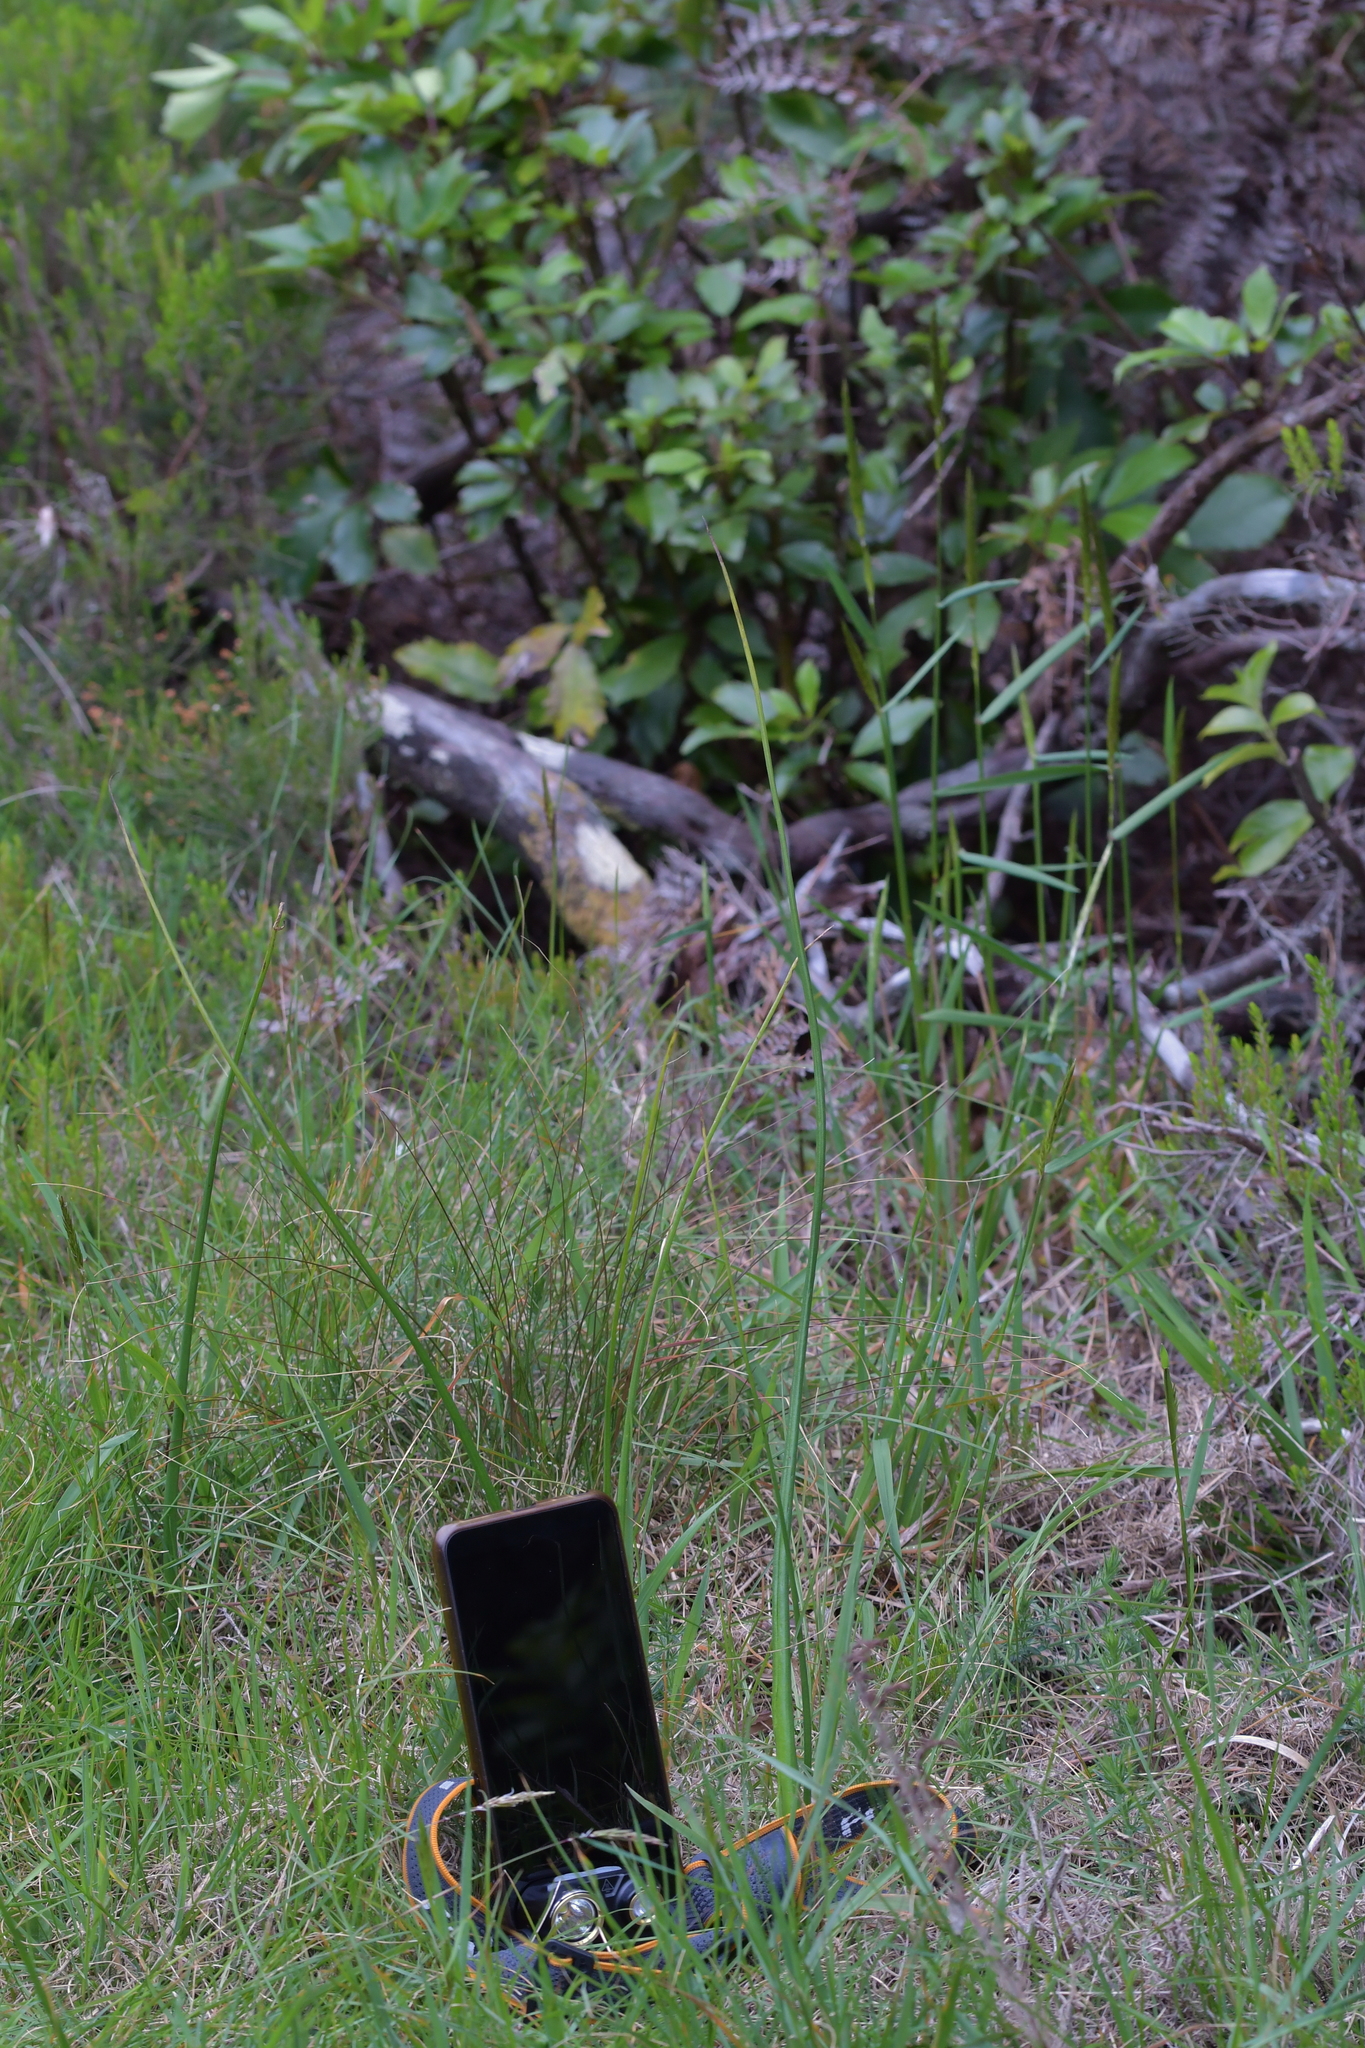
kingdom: Plantae
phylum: Tracheophyta
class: Liliopsida
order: Asparagales
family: Orchidaceae
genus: Microtis
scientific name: Microtis unifolia
